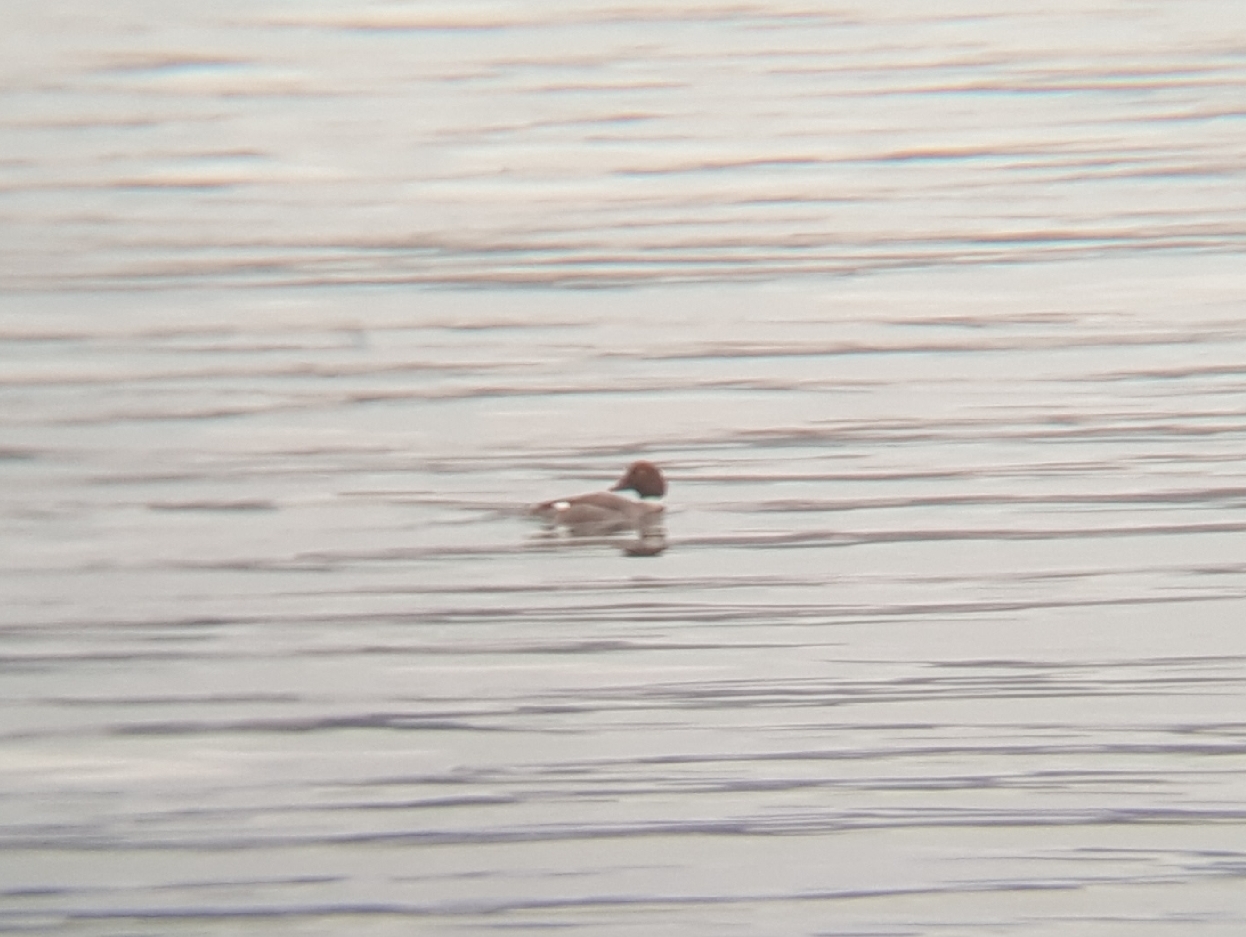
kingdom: Animalia
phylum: Chordata
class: Aves
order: Anseriformes
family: Anatidae
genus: Bucephala
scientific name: Bucephala clangula
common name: Common goldeneye
